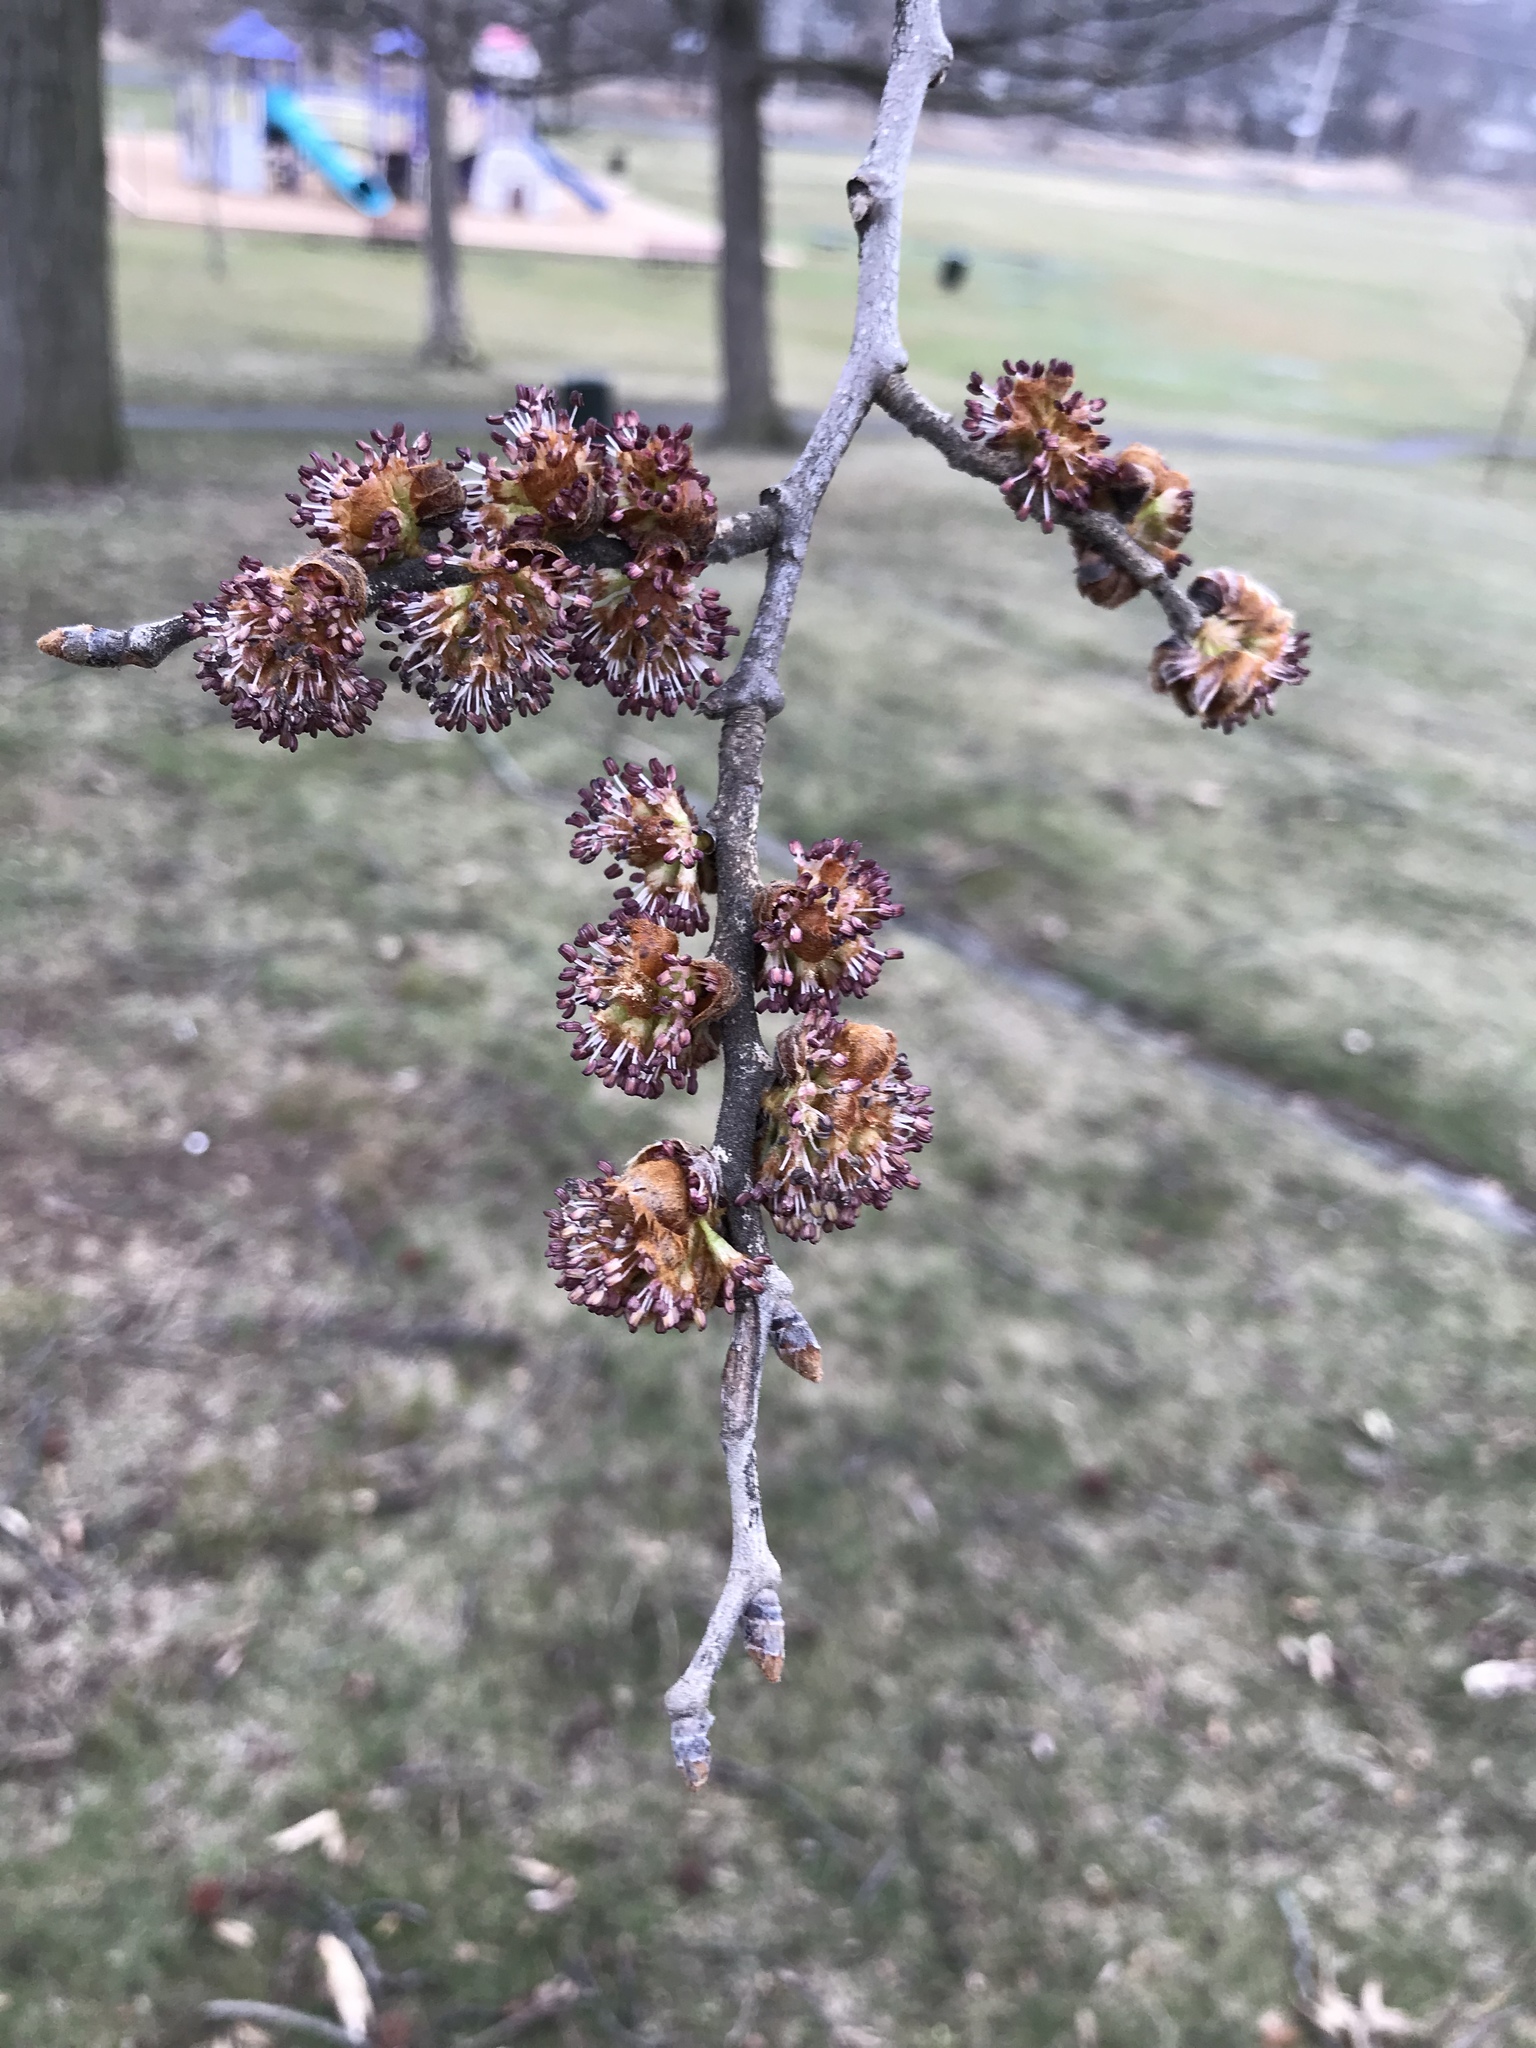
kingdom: Plantae
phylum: Tracheophyta
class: Magnoliopsida
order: Rosales
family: Ulmaceae
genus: Ulmus
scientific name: Ulmus rubra
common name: Slippery elm
